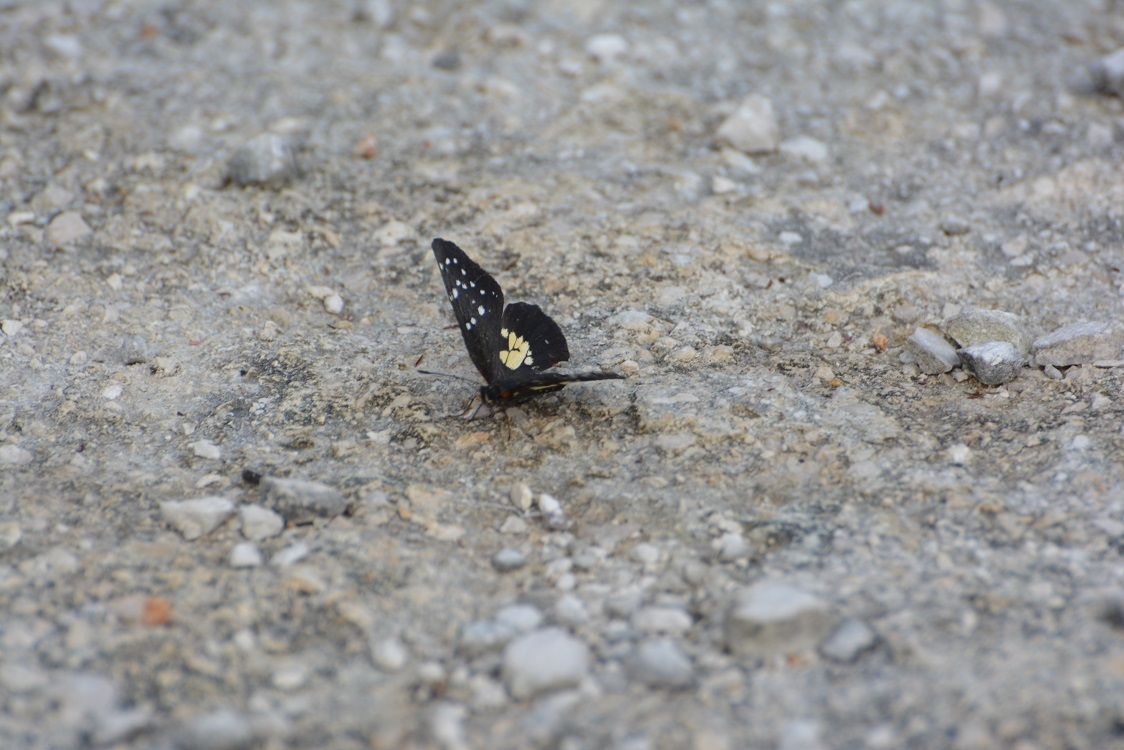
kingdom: Animalia
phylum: Arthropoda
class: Insecta
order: Lepidoptera
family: Nymphalidae
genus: Chlosyne
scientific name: Chlosyne erodyle
